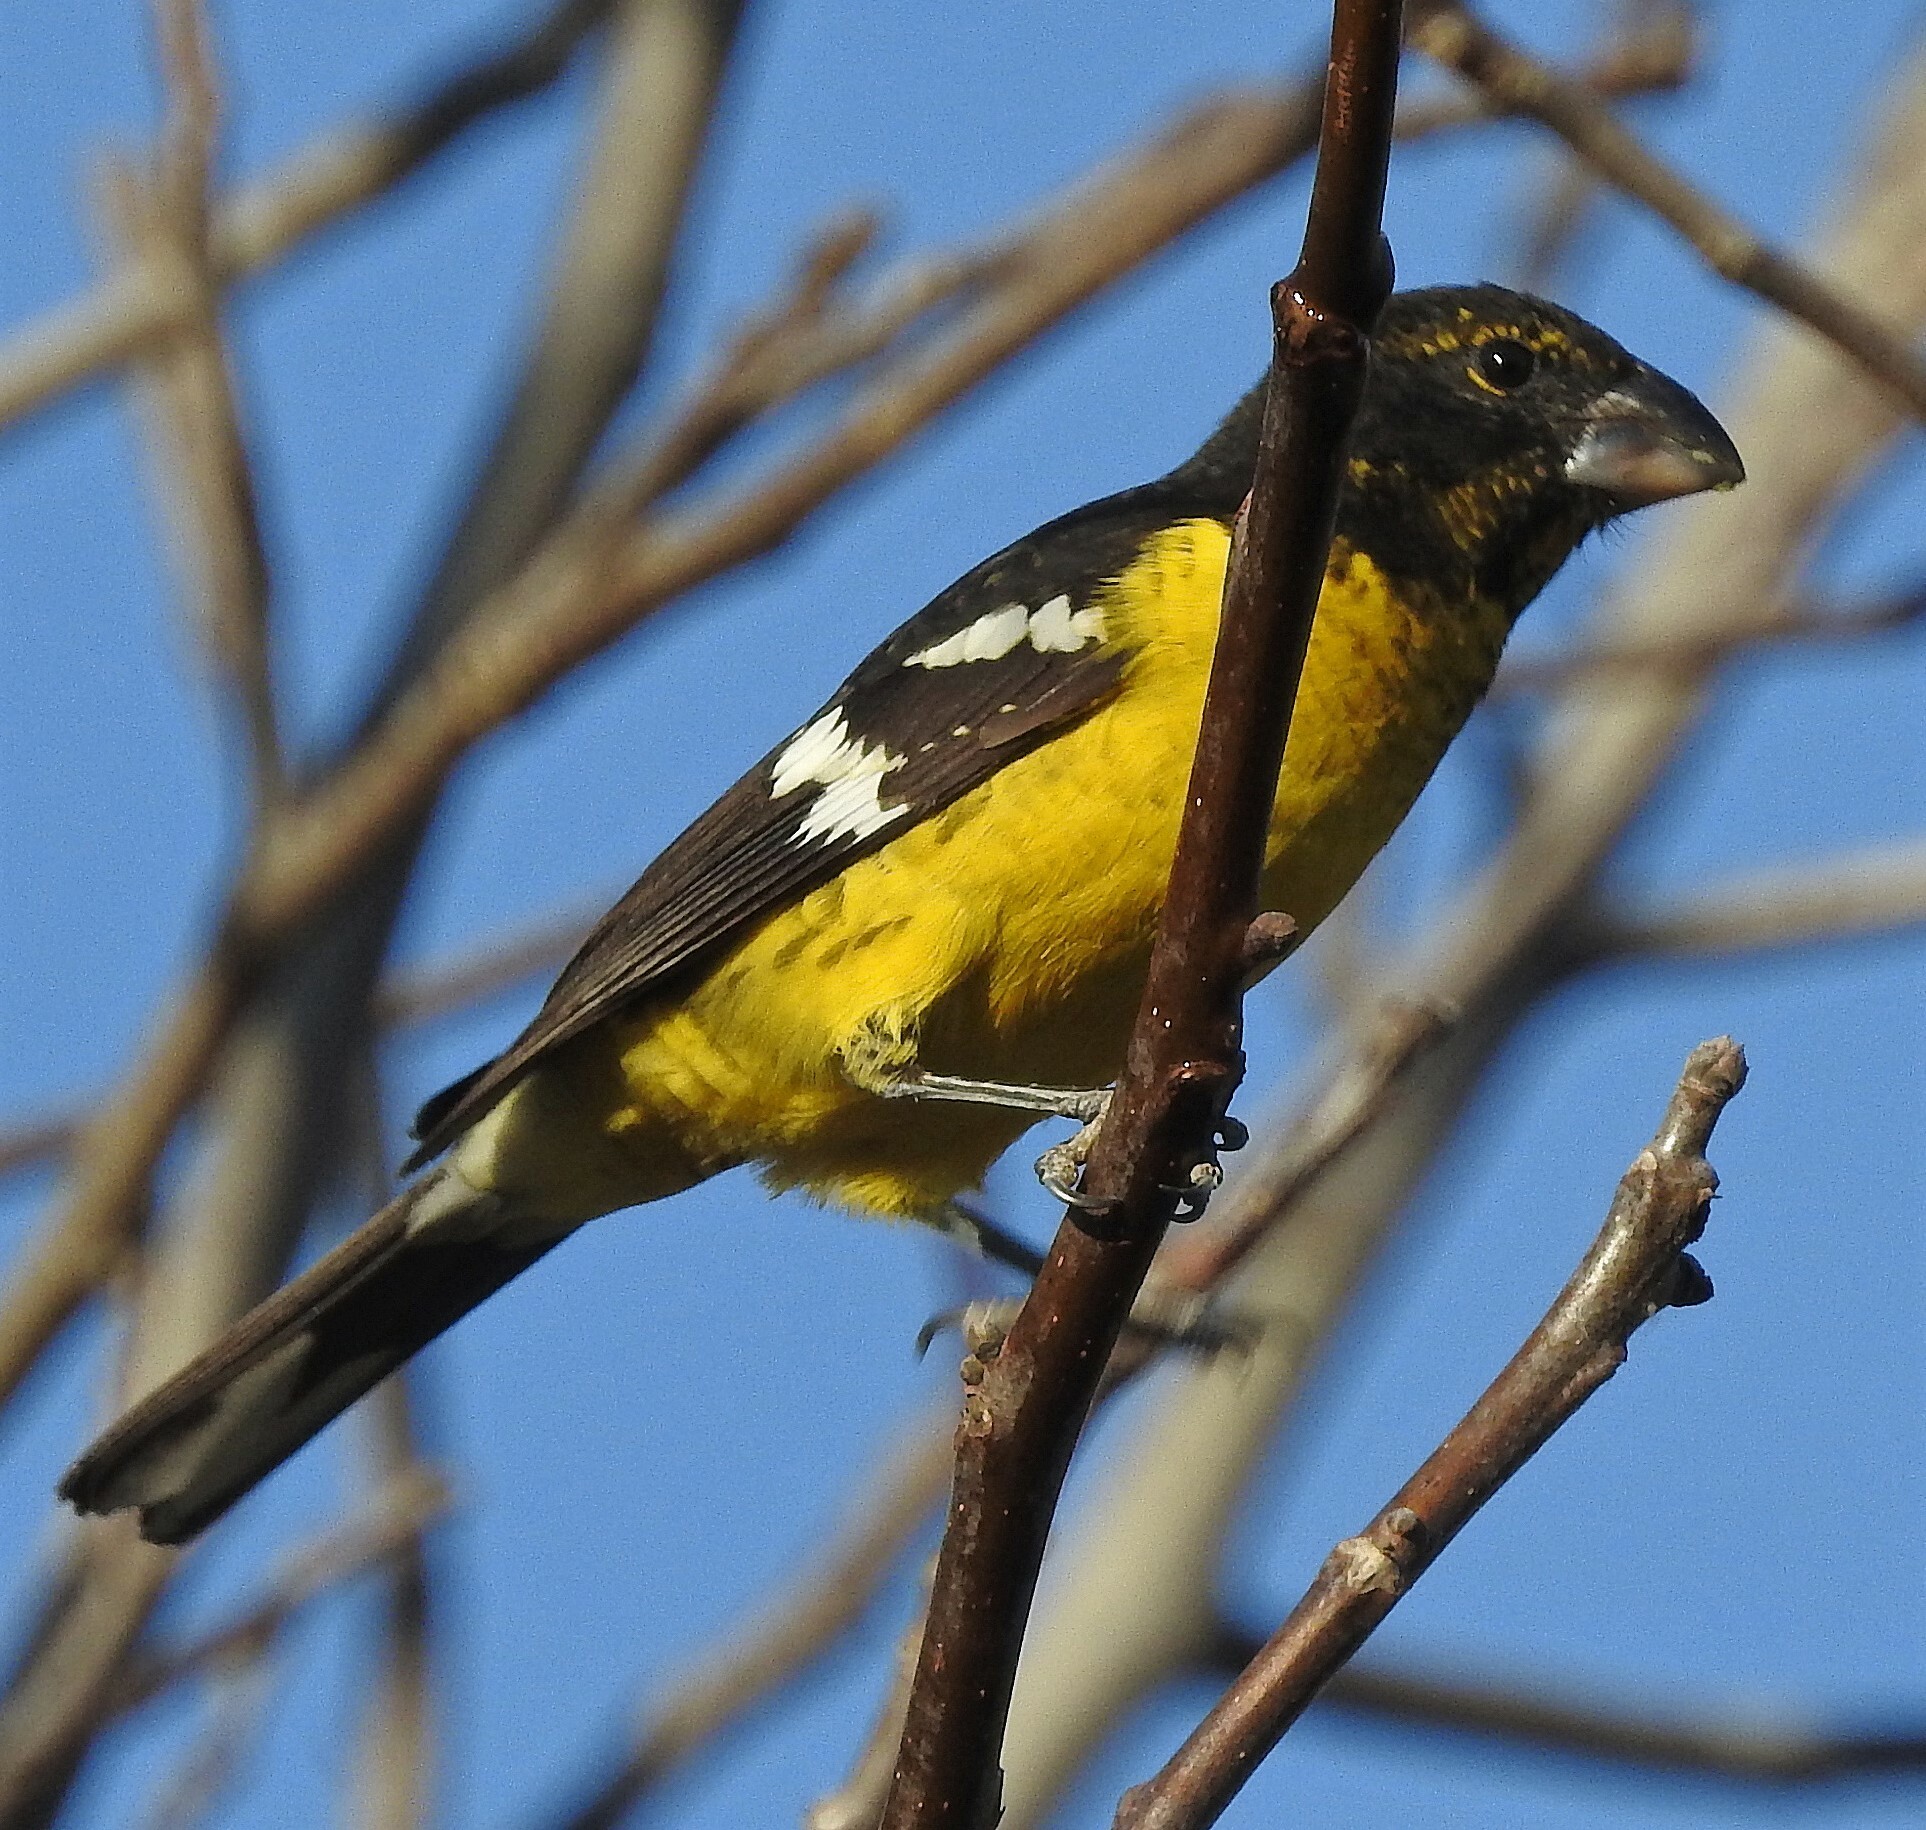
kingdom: Animalia
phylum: Chordata
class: Aves
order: Passeriformes
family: Cardinalidae
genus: Pheucticus
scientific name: Pheucticus aureoventris
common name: Black-backed grosbeak
